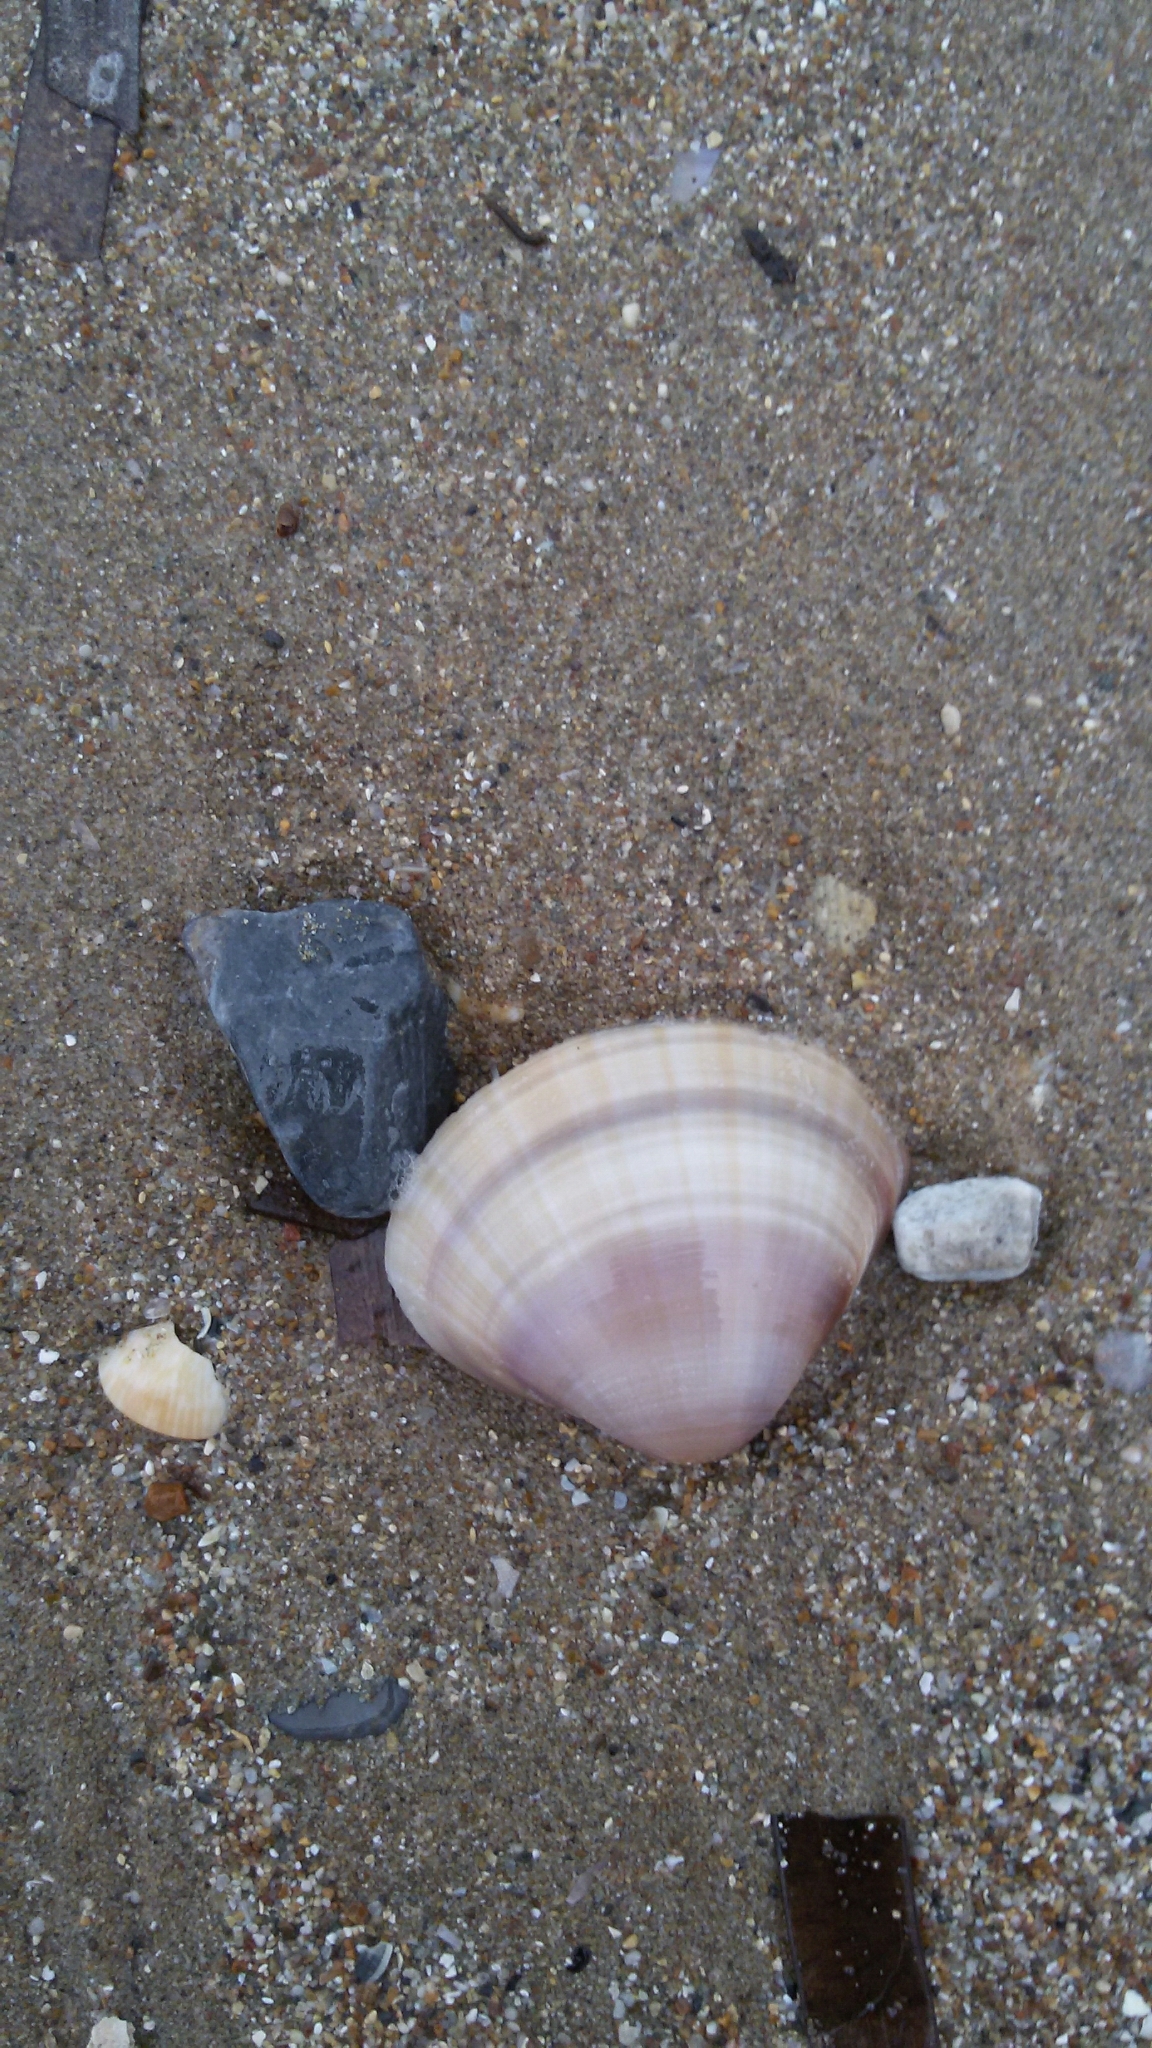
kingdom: Animalia
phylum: Mollusca
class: Bivalvia
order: Venerida
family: Mactridae
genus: Mactra
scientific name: Mactra stultorum
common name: Rayed trough shell
